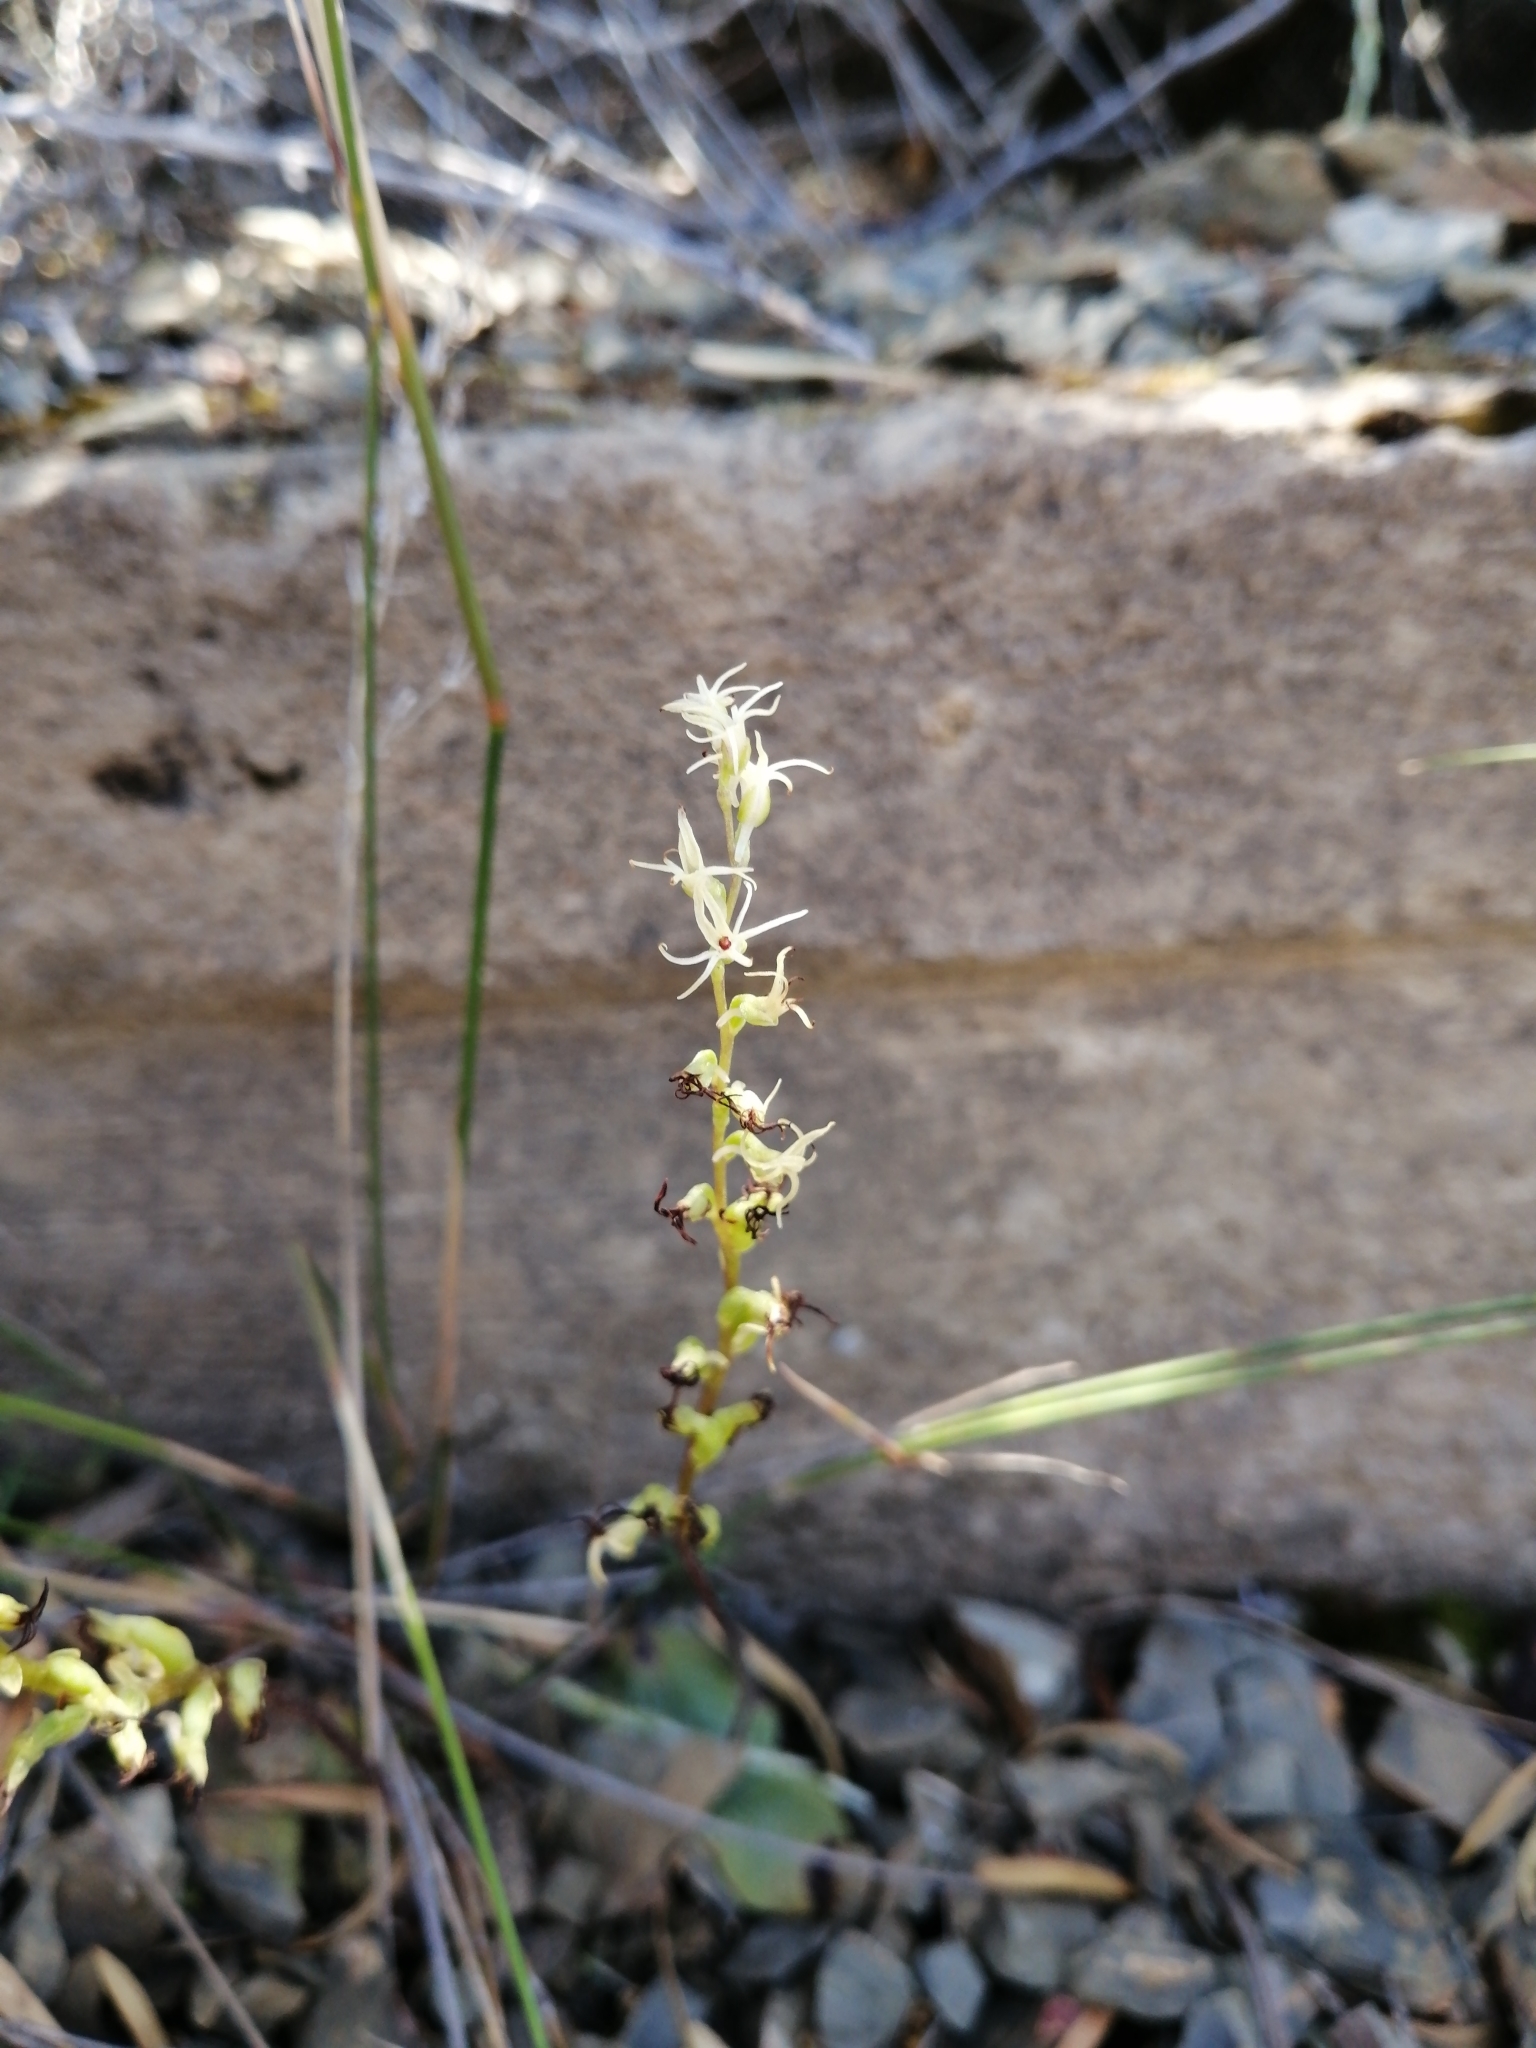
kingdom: Plantae
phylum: Tracheophyta
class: Liliopsida
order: Asparagales
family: Orchidaceae
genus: Holothrix
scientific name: Holothrix secunda
